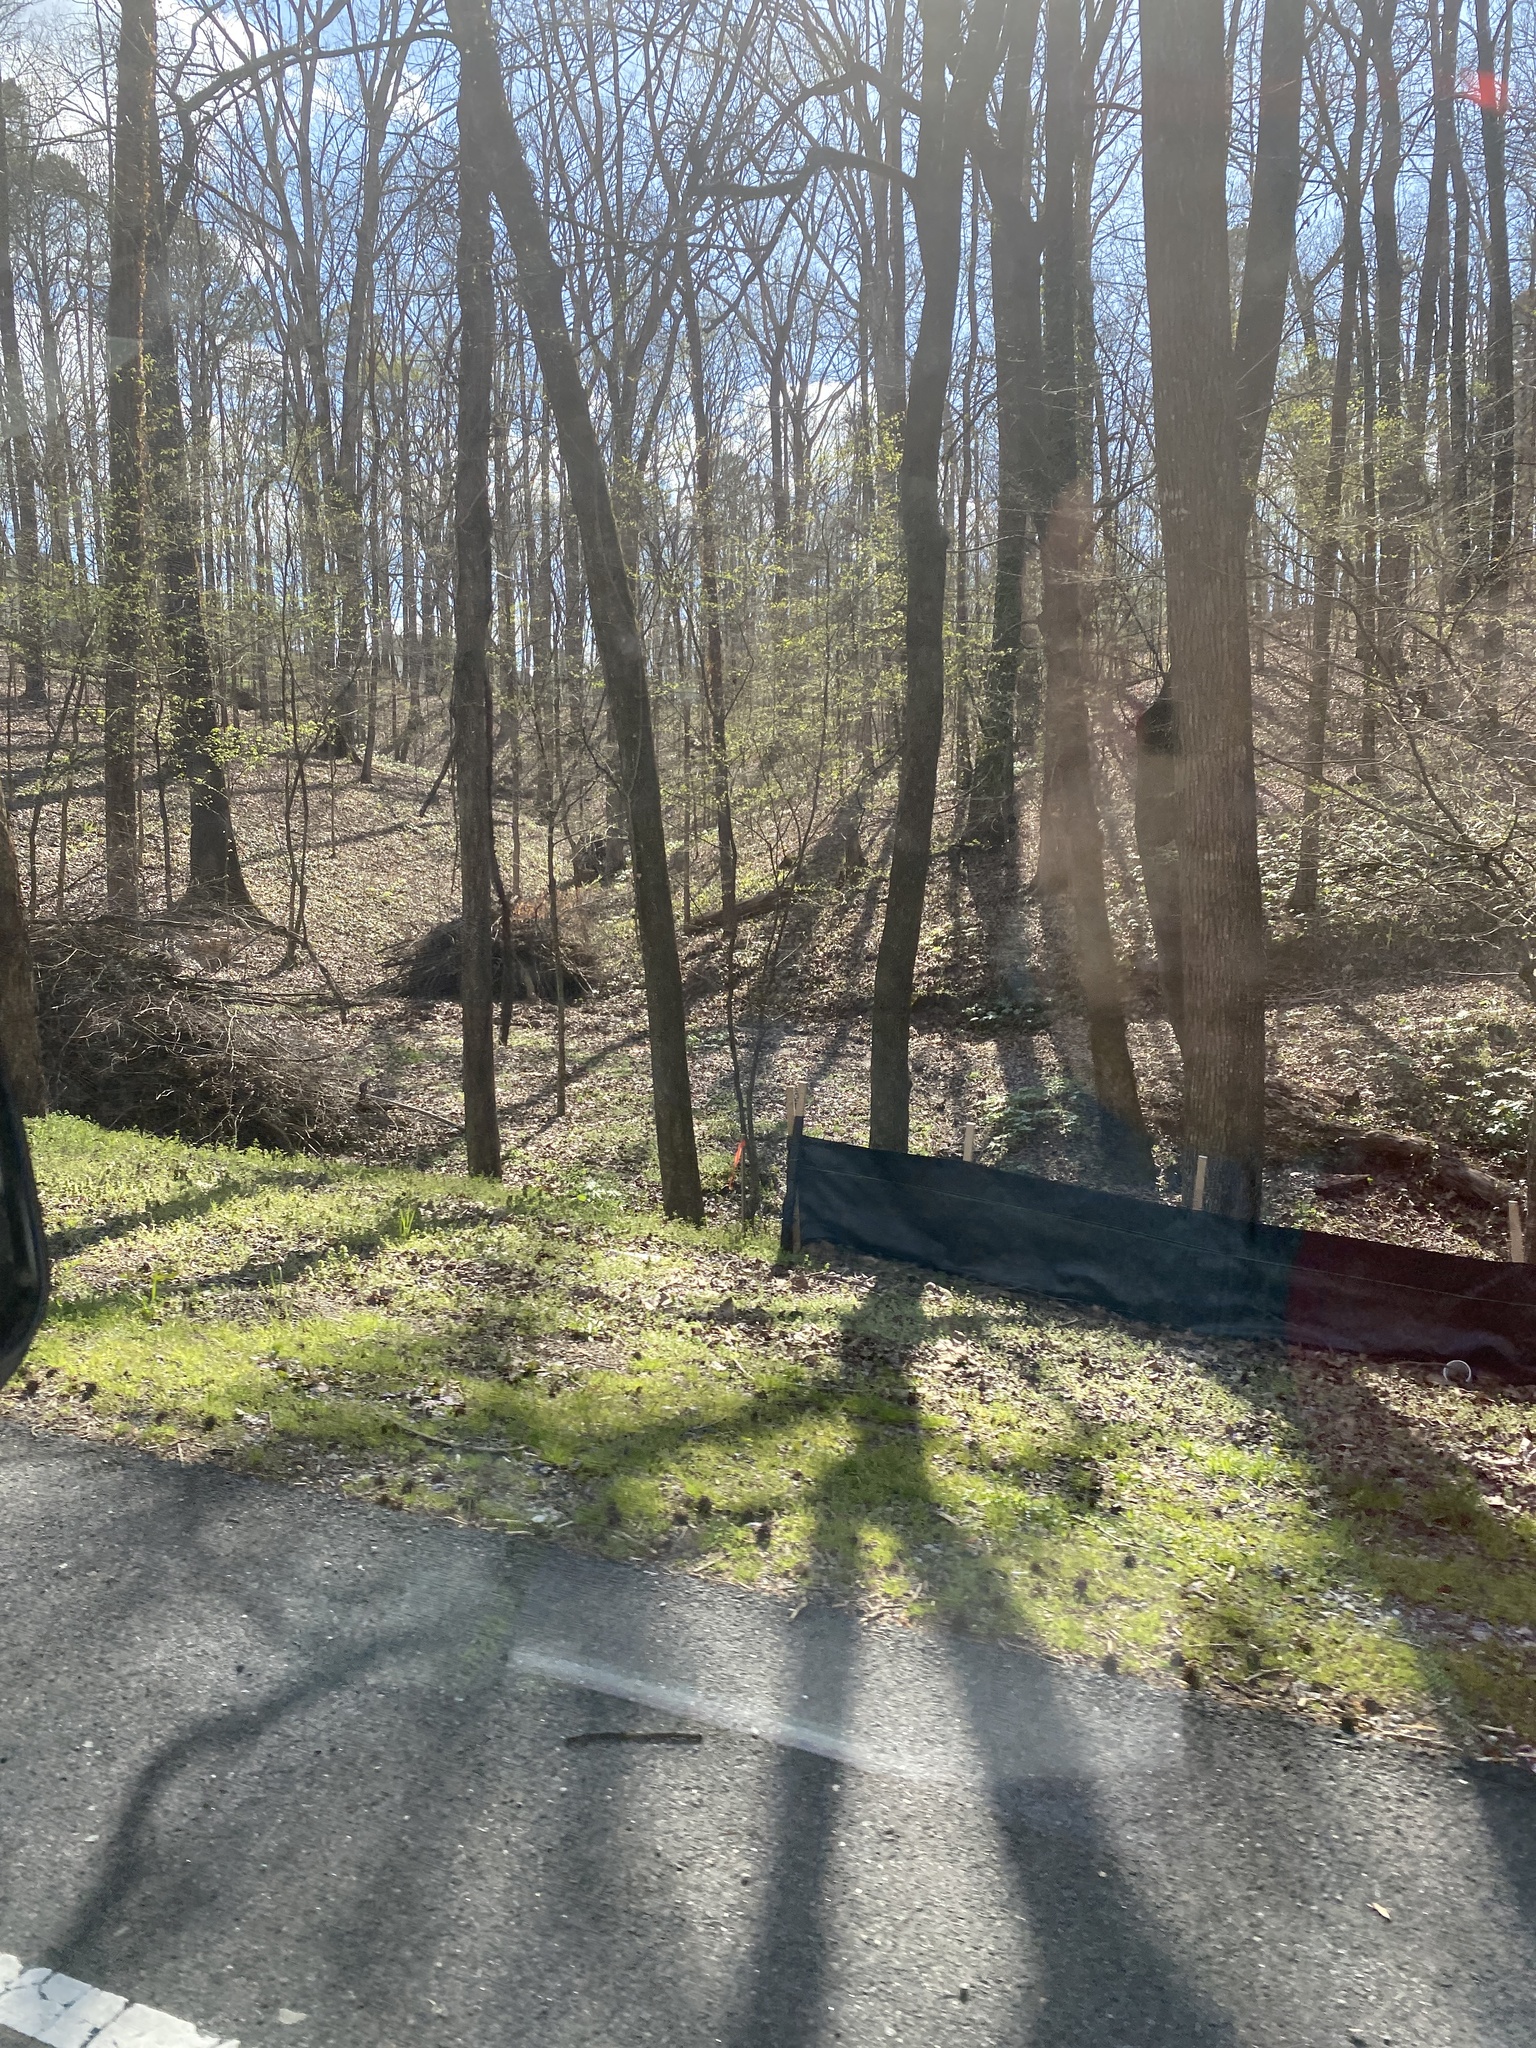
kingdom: Plantae
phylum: Tracheophyta
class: Magnoliopsida
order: Ranunculales
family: Berberidaceae
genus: Podophyllum
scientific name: Podophyllum peltatum
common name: Wild mandrake
